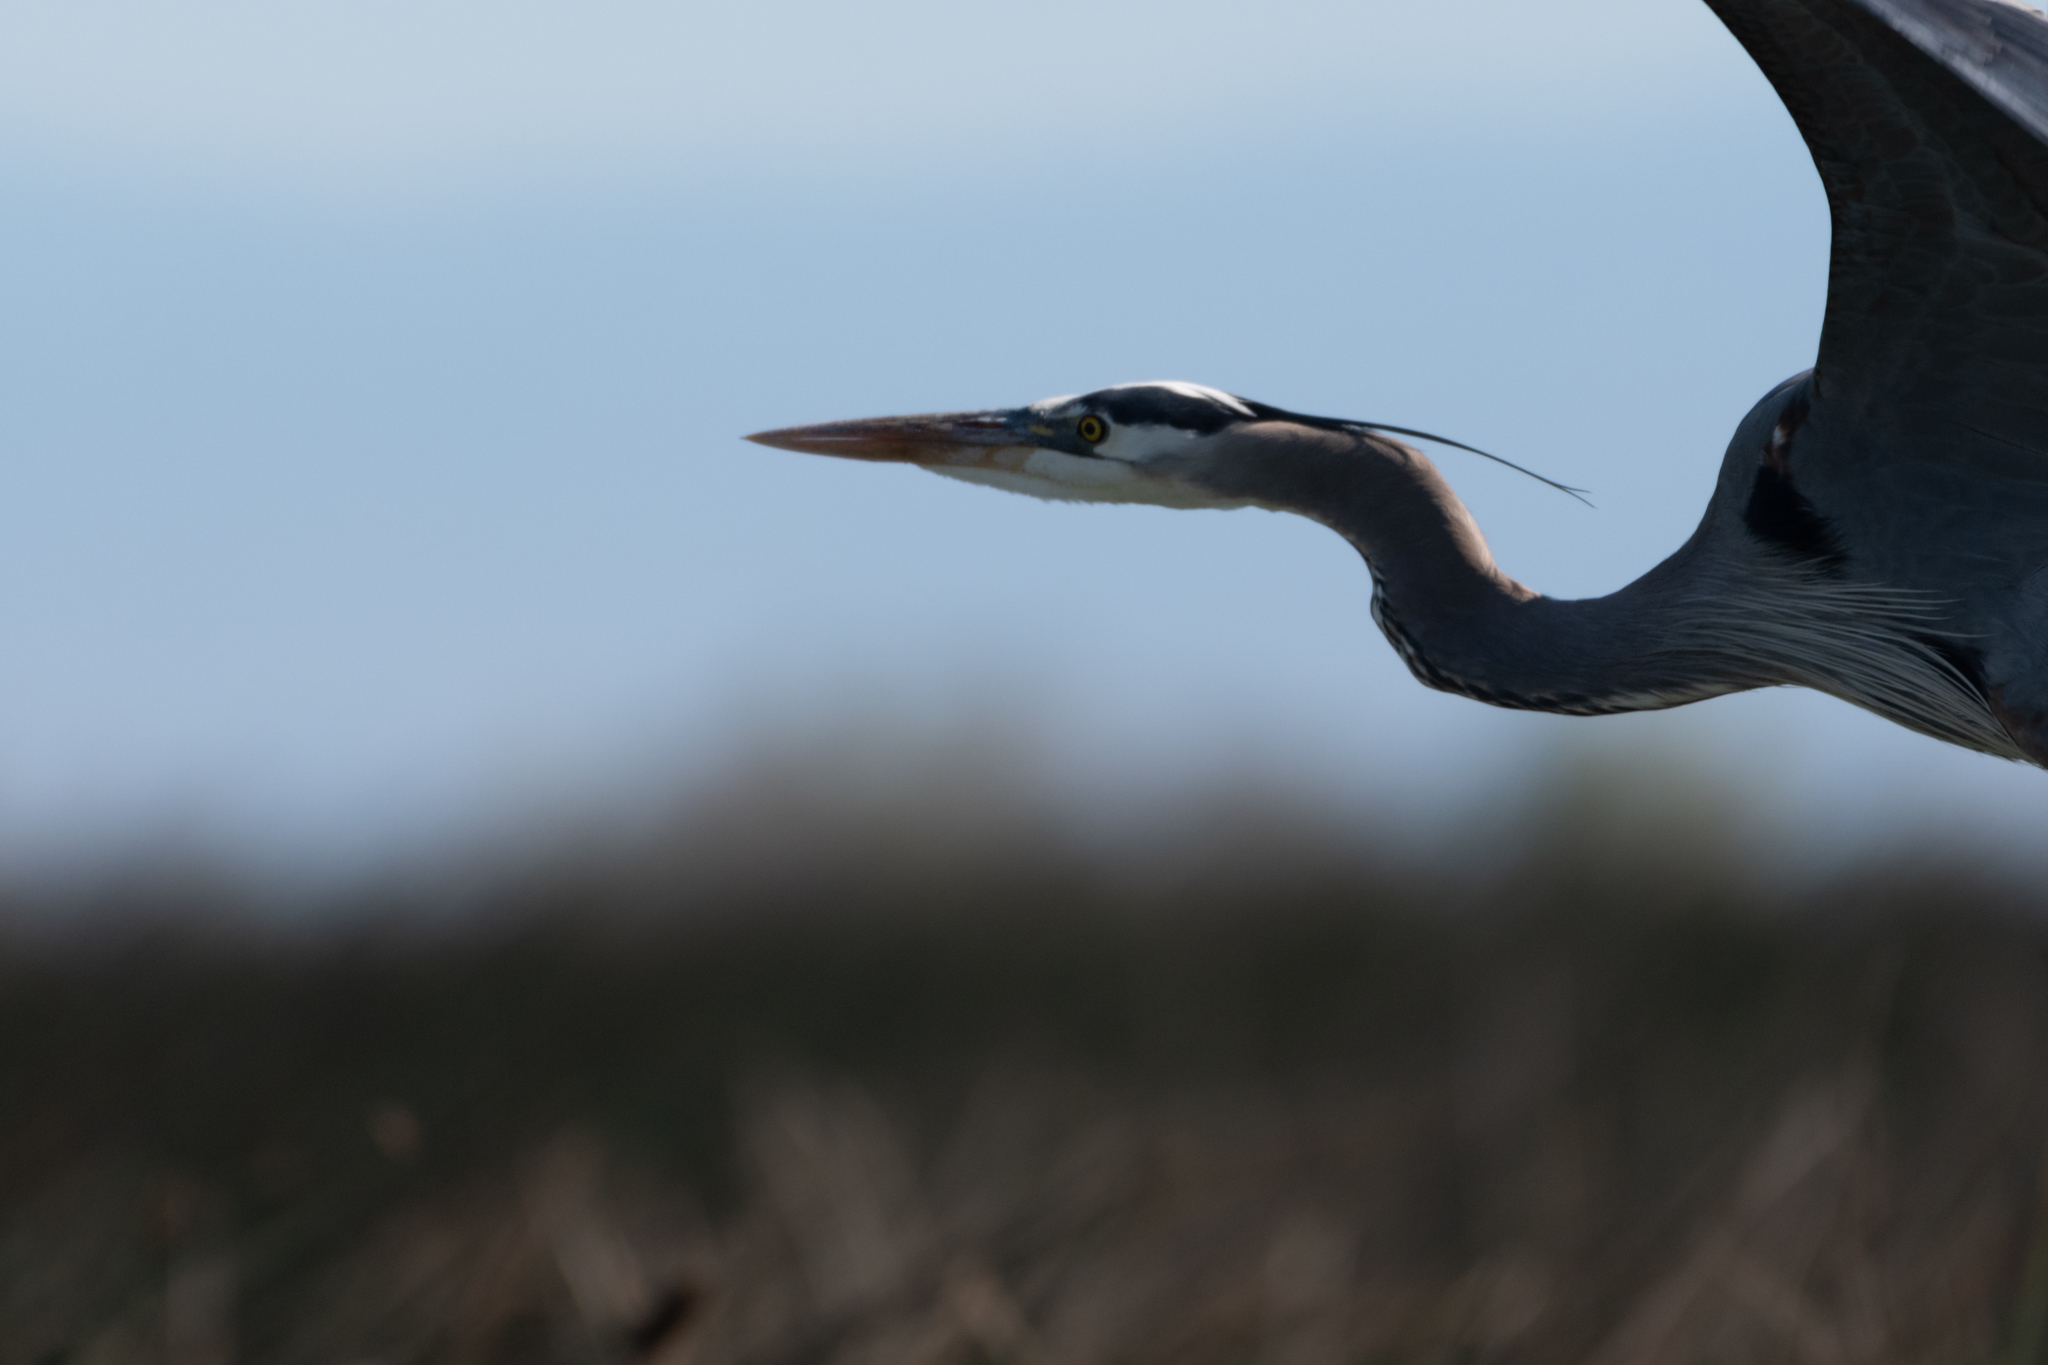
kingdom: Animalia
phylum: Chordata
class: Aves
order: Pelecaniformes
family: Ardeidae
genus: Ardea
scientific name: Ardea herodias
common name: Great blue heron
